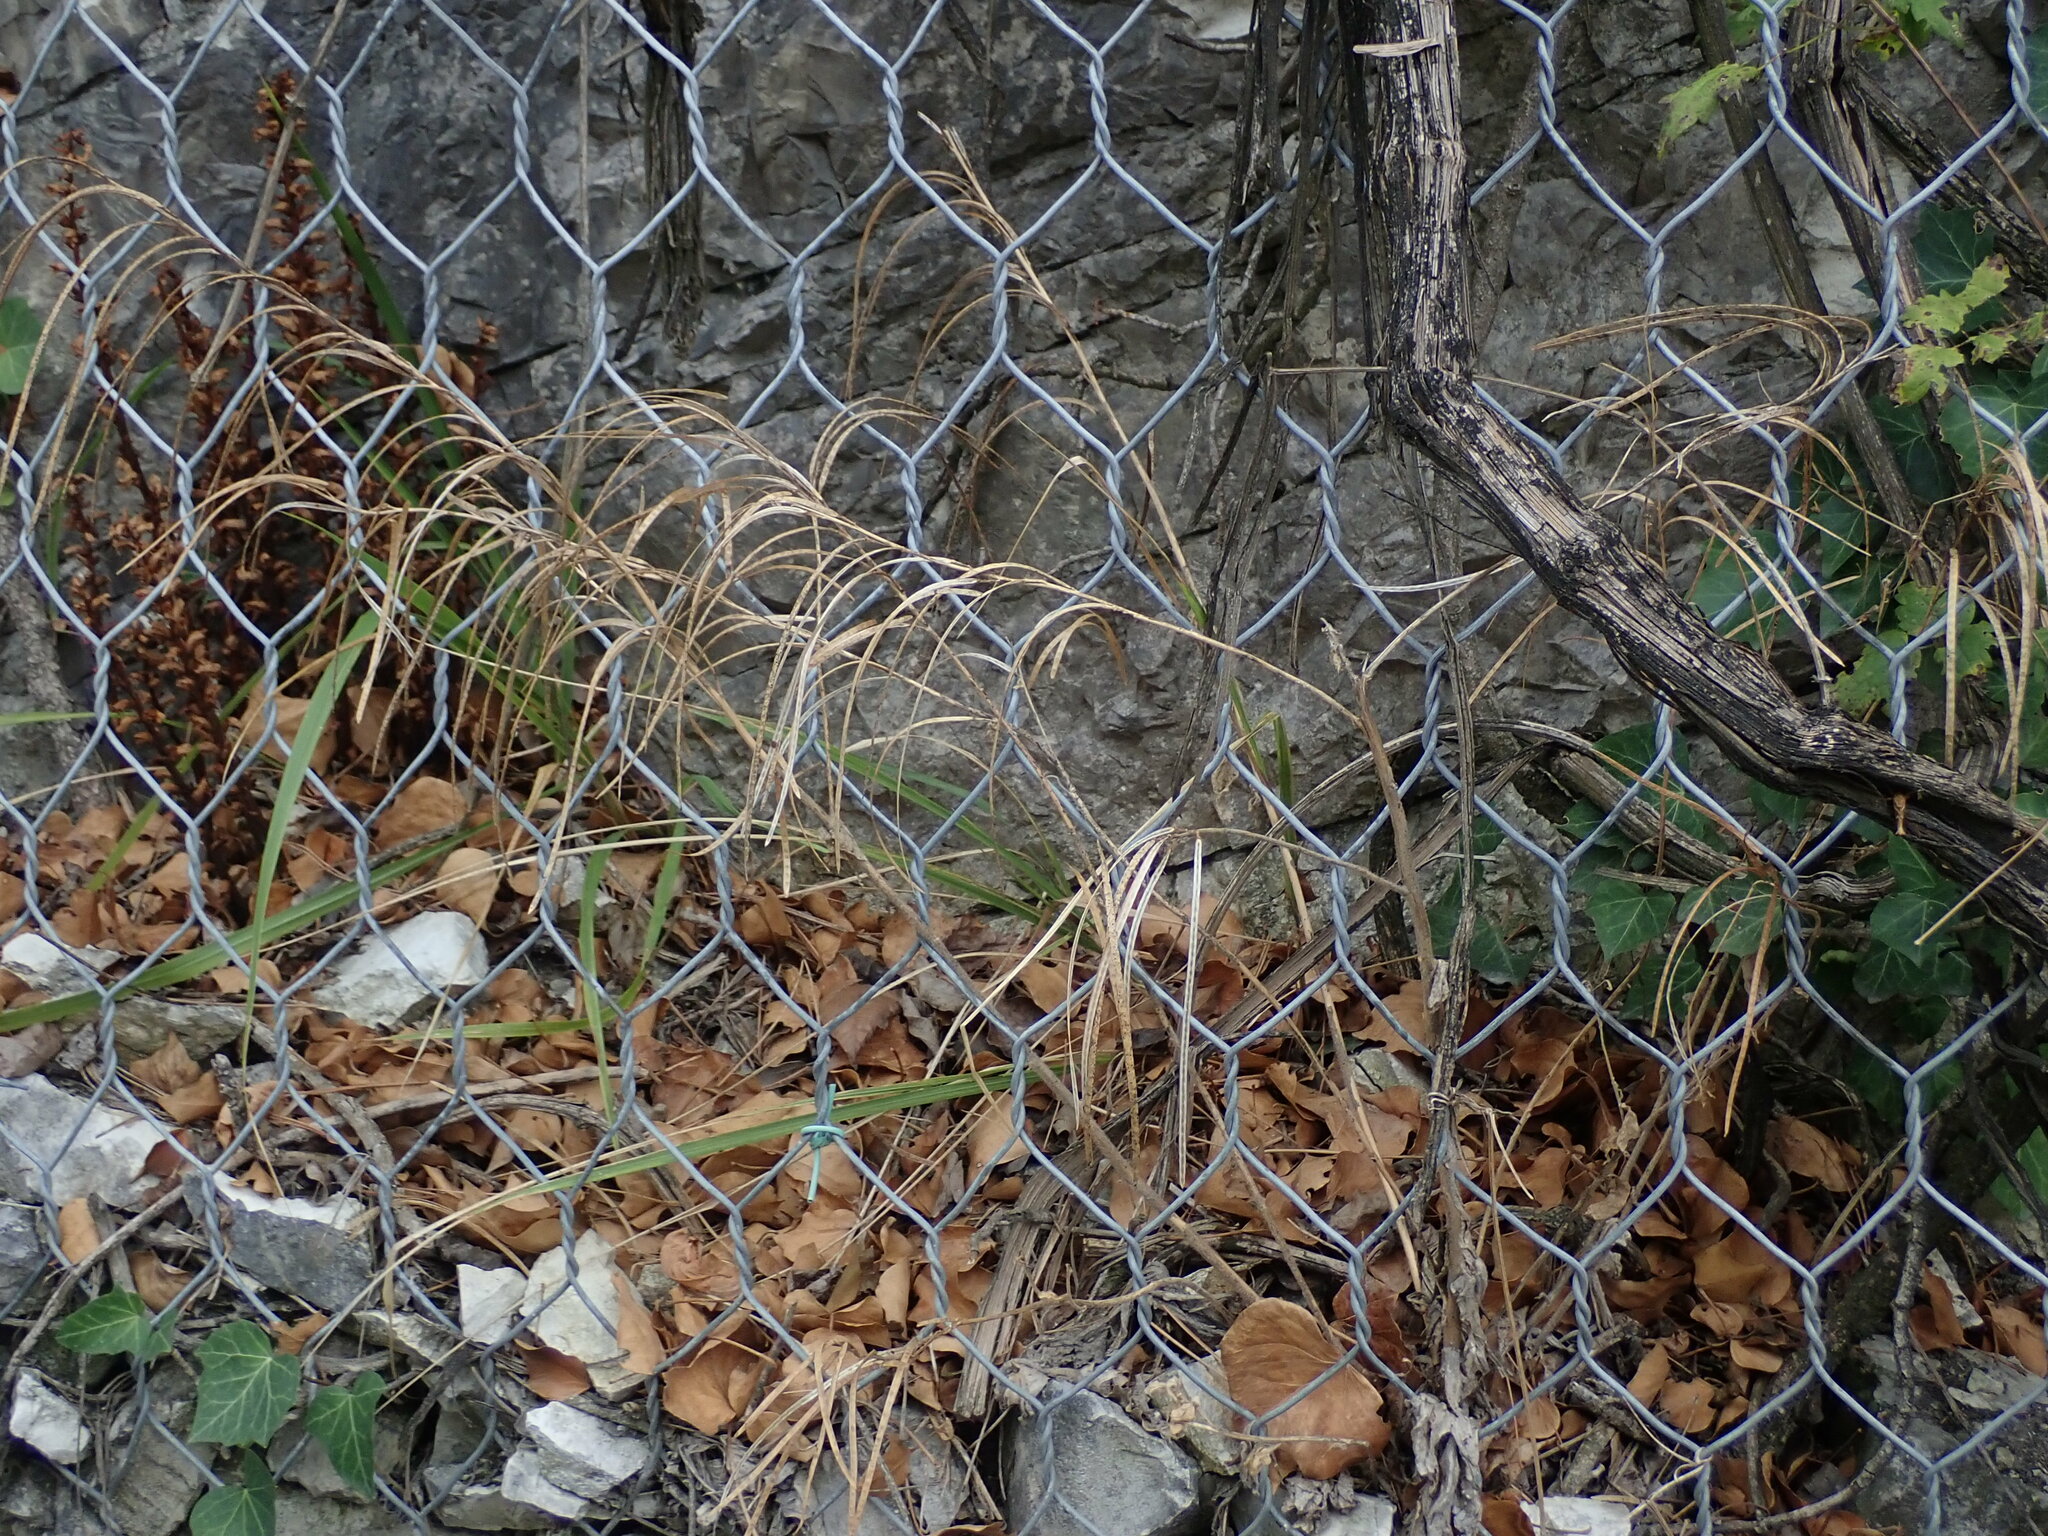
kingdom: Plantae
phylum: Tracheophyta
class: Magnoliopsida
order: Brassicales
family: Brassicaceae
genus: Pseudoturritis
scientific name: Pseudoturritis turrita
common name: Tower cress
